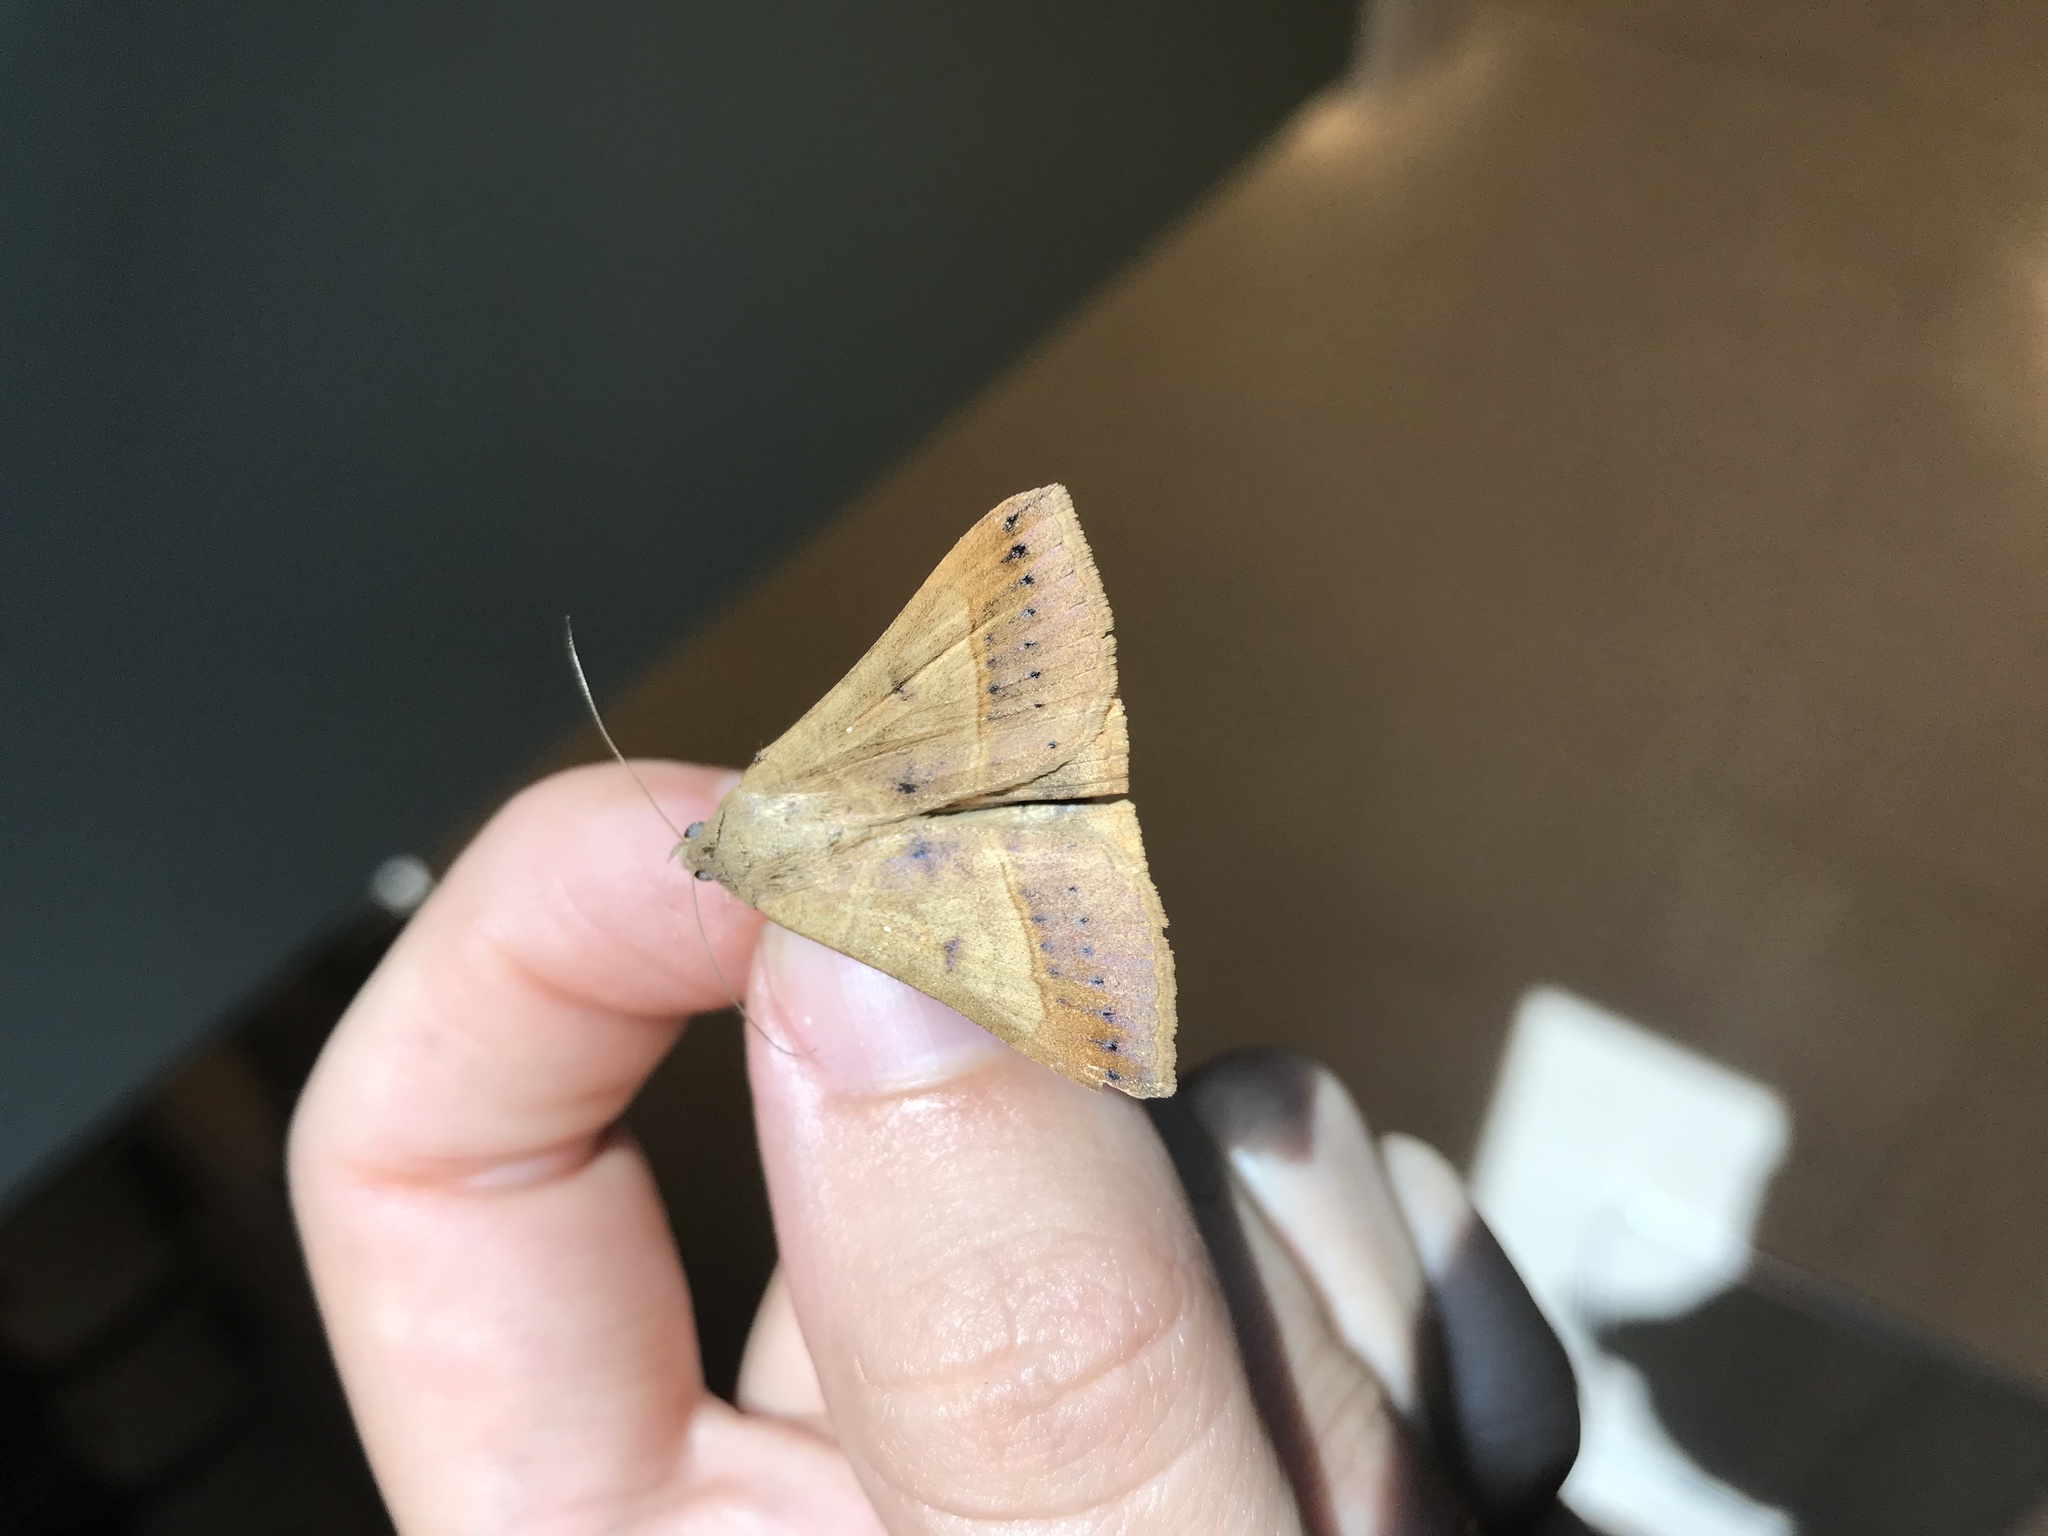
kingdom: Animalia
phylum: Arthropoda
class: Insecta
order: Lepidoptera
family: Erebidae
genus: Mocis
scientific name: Mocis latipes
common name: Striped grass looper
